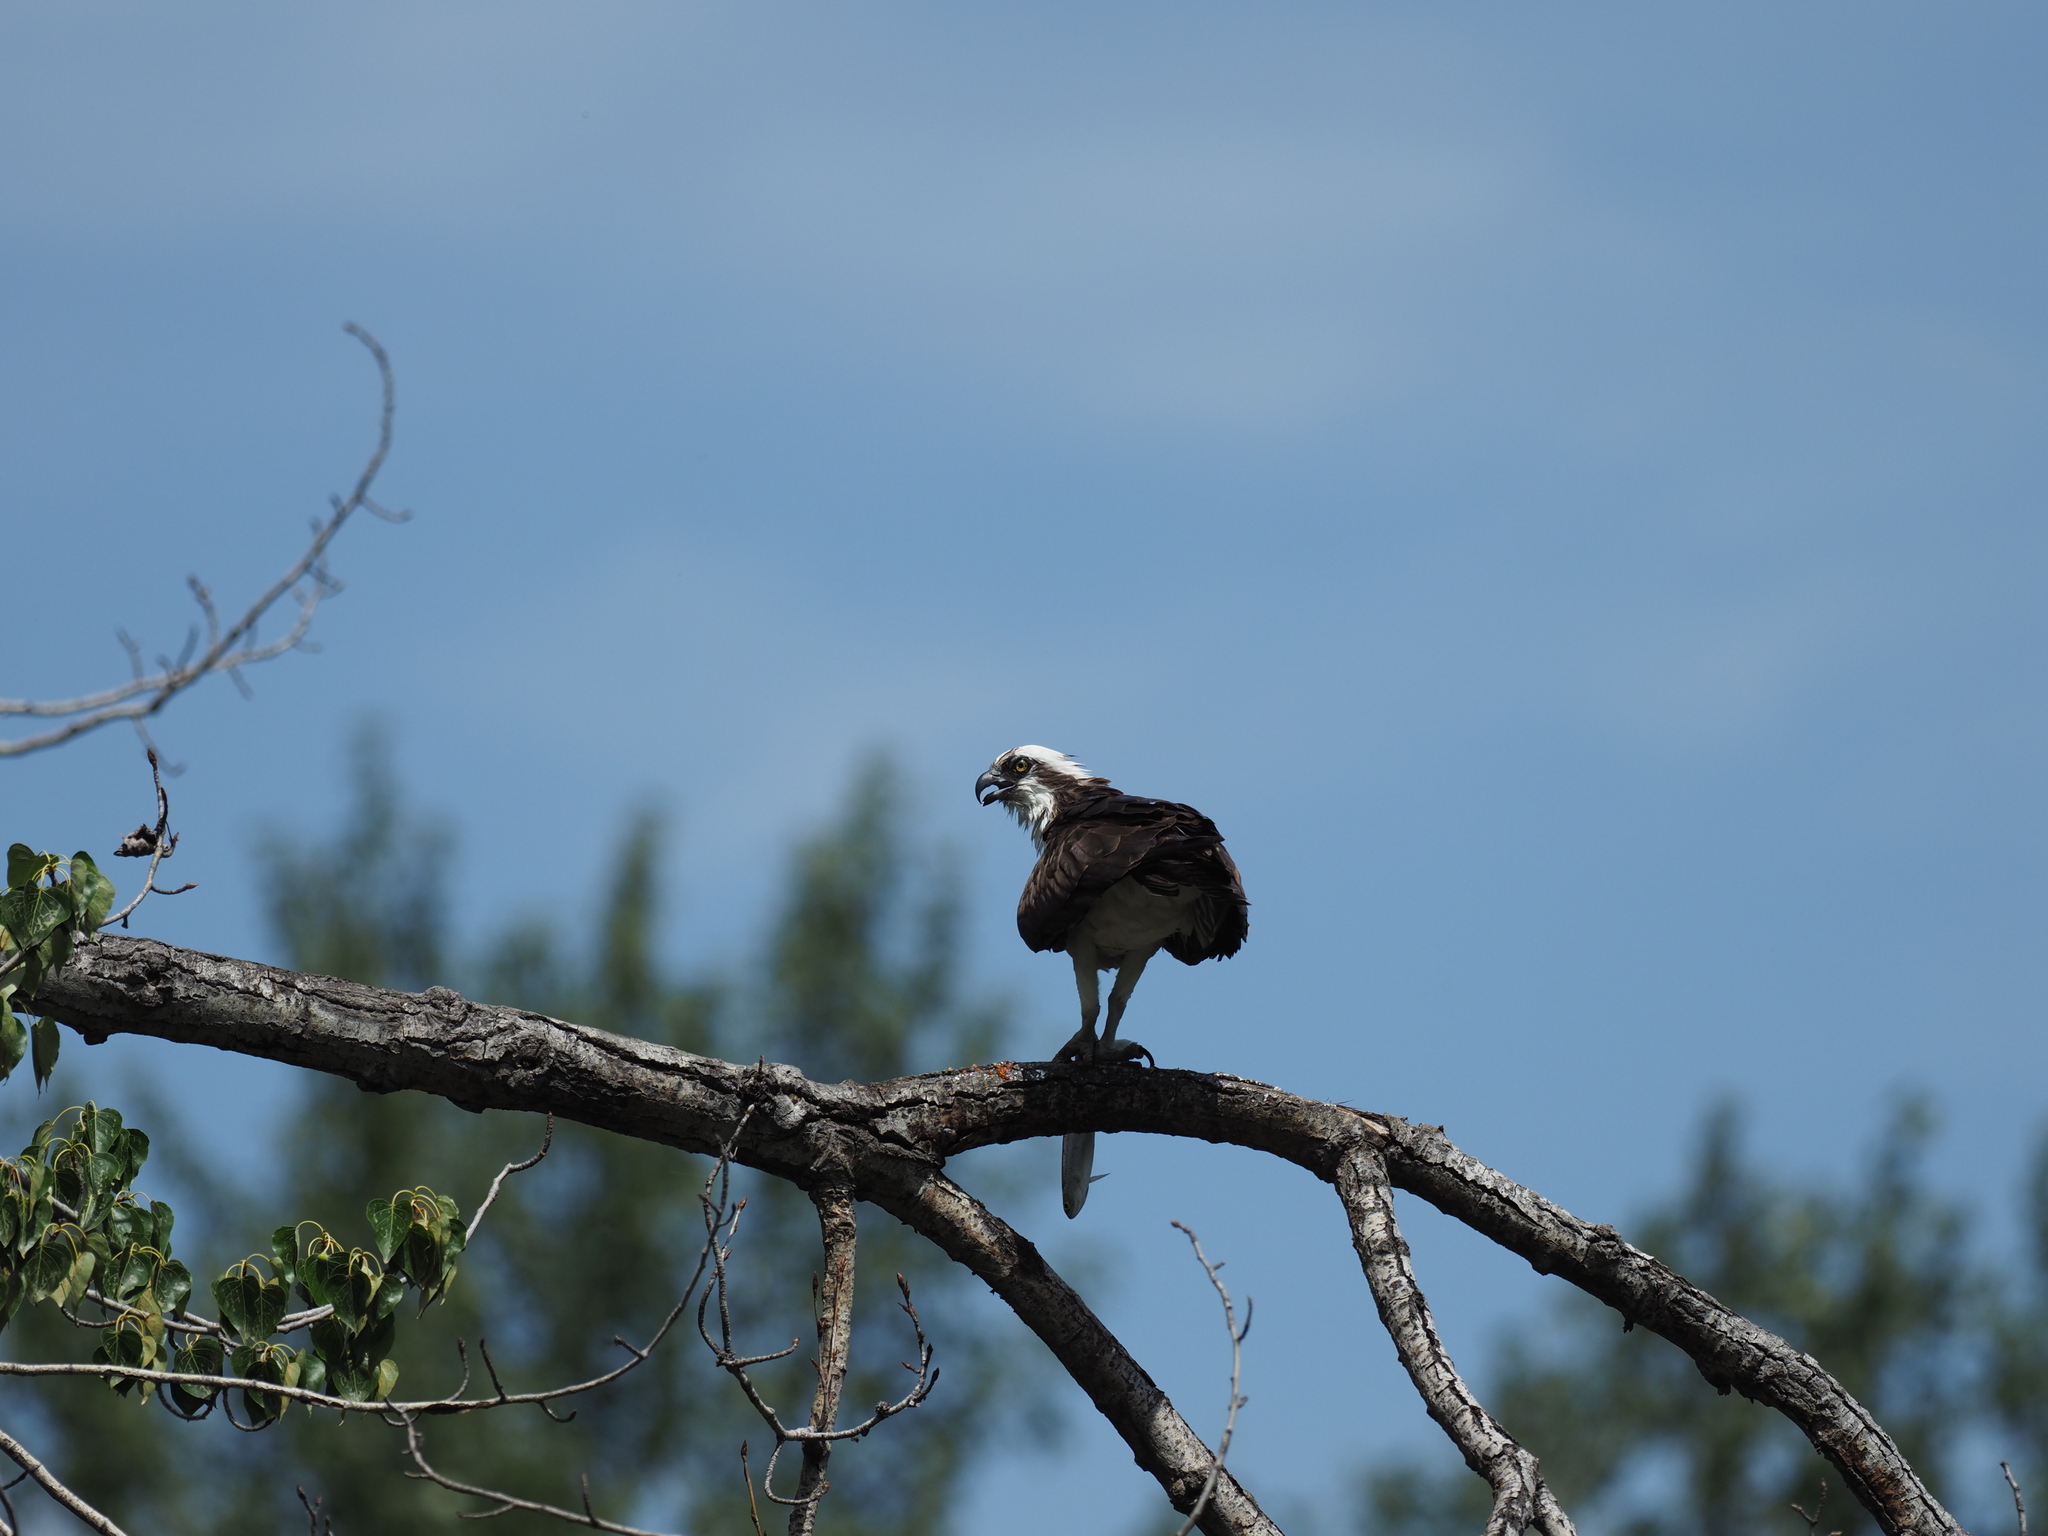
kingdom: Animalia
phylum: Chordata
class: Aves
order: Accipitriformes
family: Pandionidae
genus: Pandion
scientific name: Pandion haliaetus
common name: Osprey
